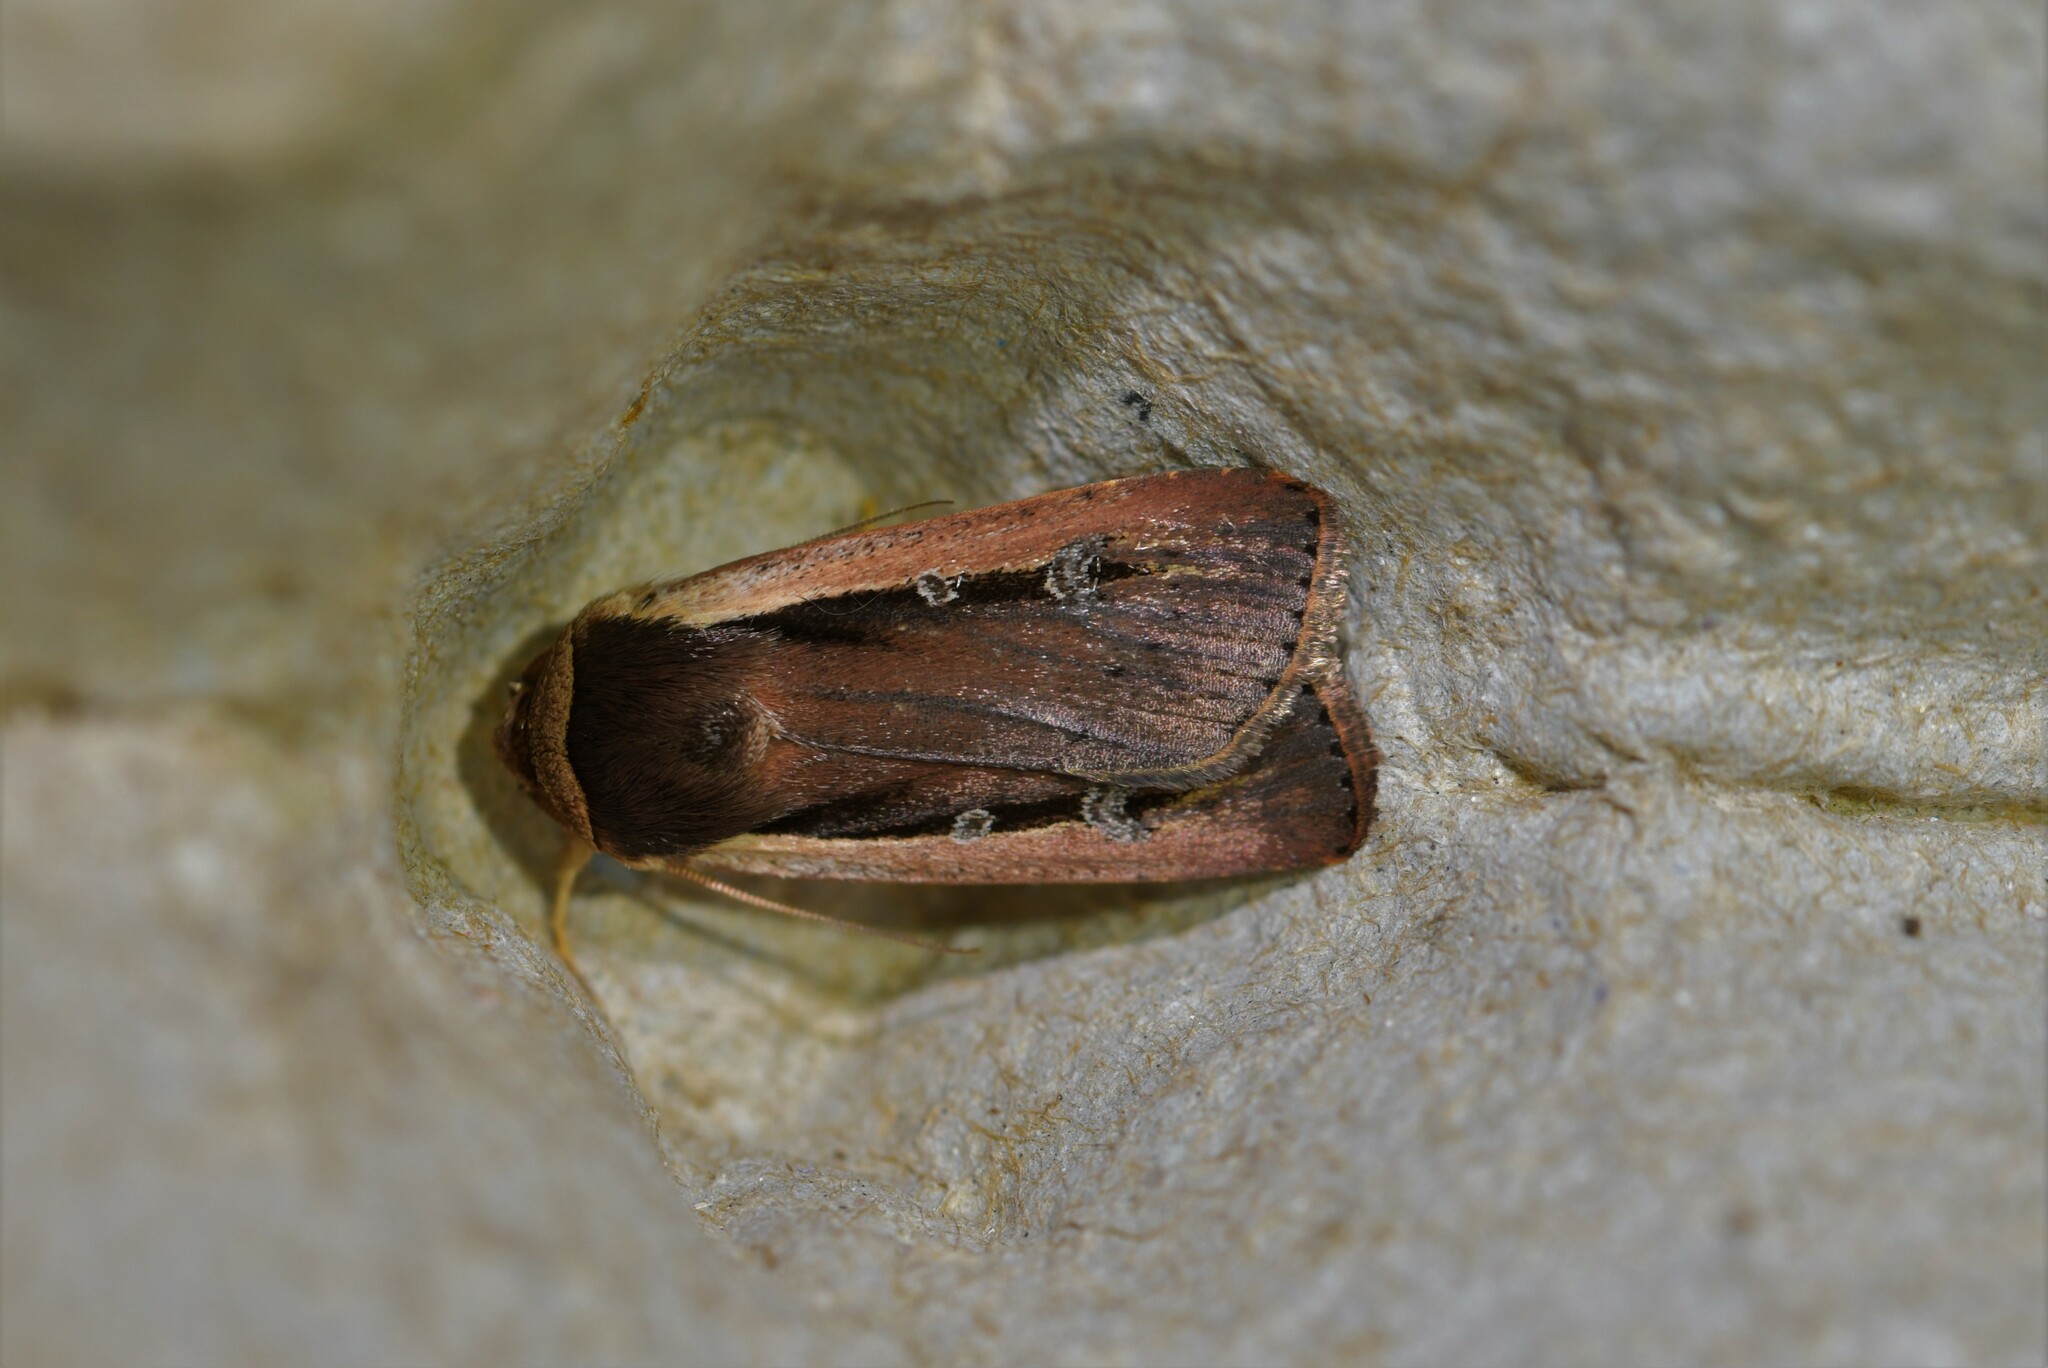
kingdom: Animalia
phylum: Arthropoda
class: Insecta
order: Lepidoptera
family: Noctuidae
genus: Ochropleura
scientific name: Ochropleura leucogaster
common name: Radford's flame shoulder
